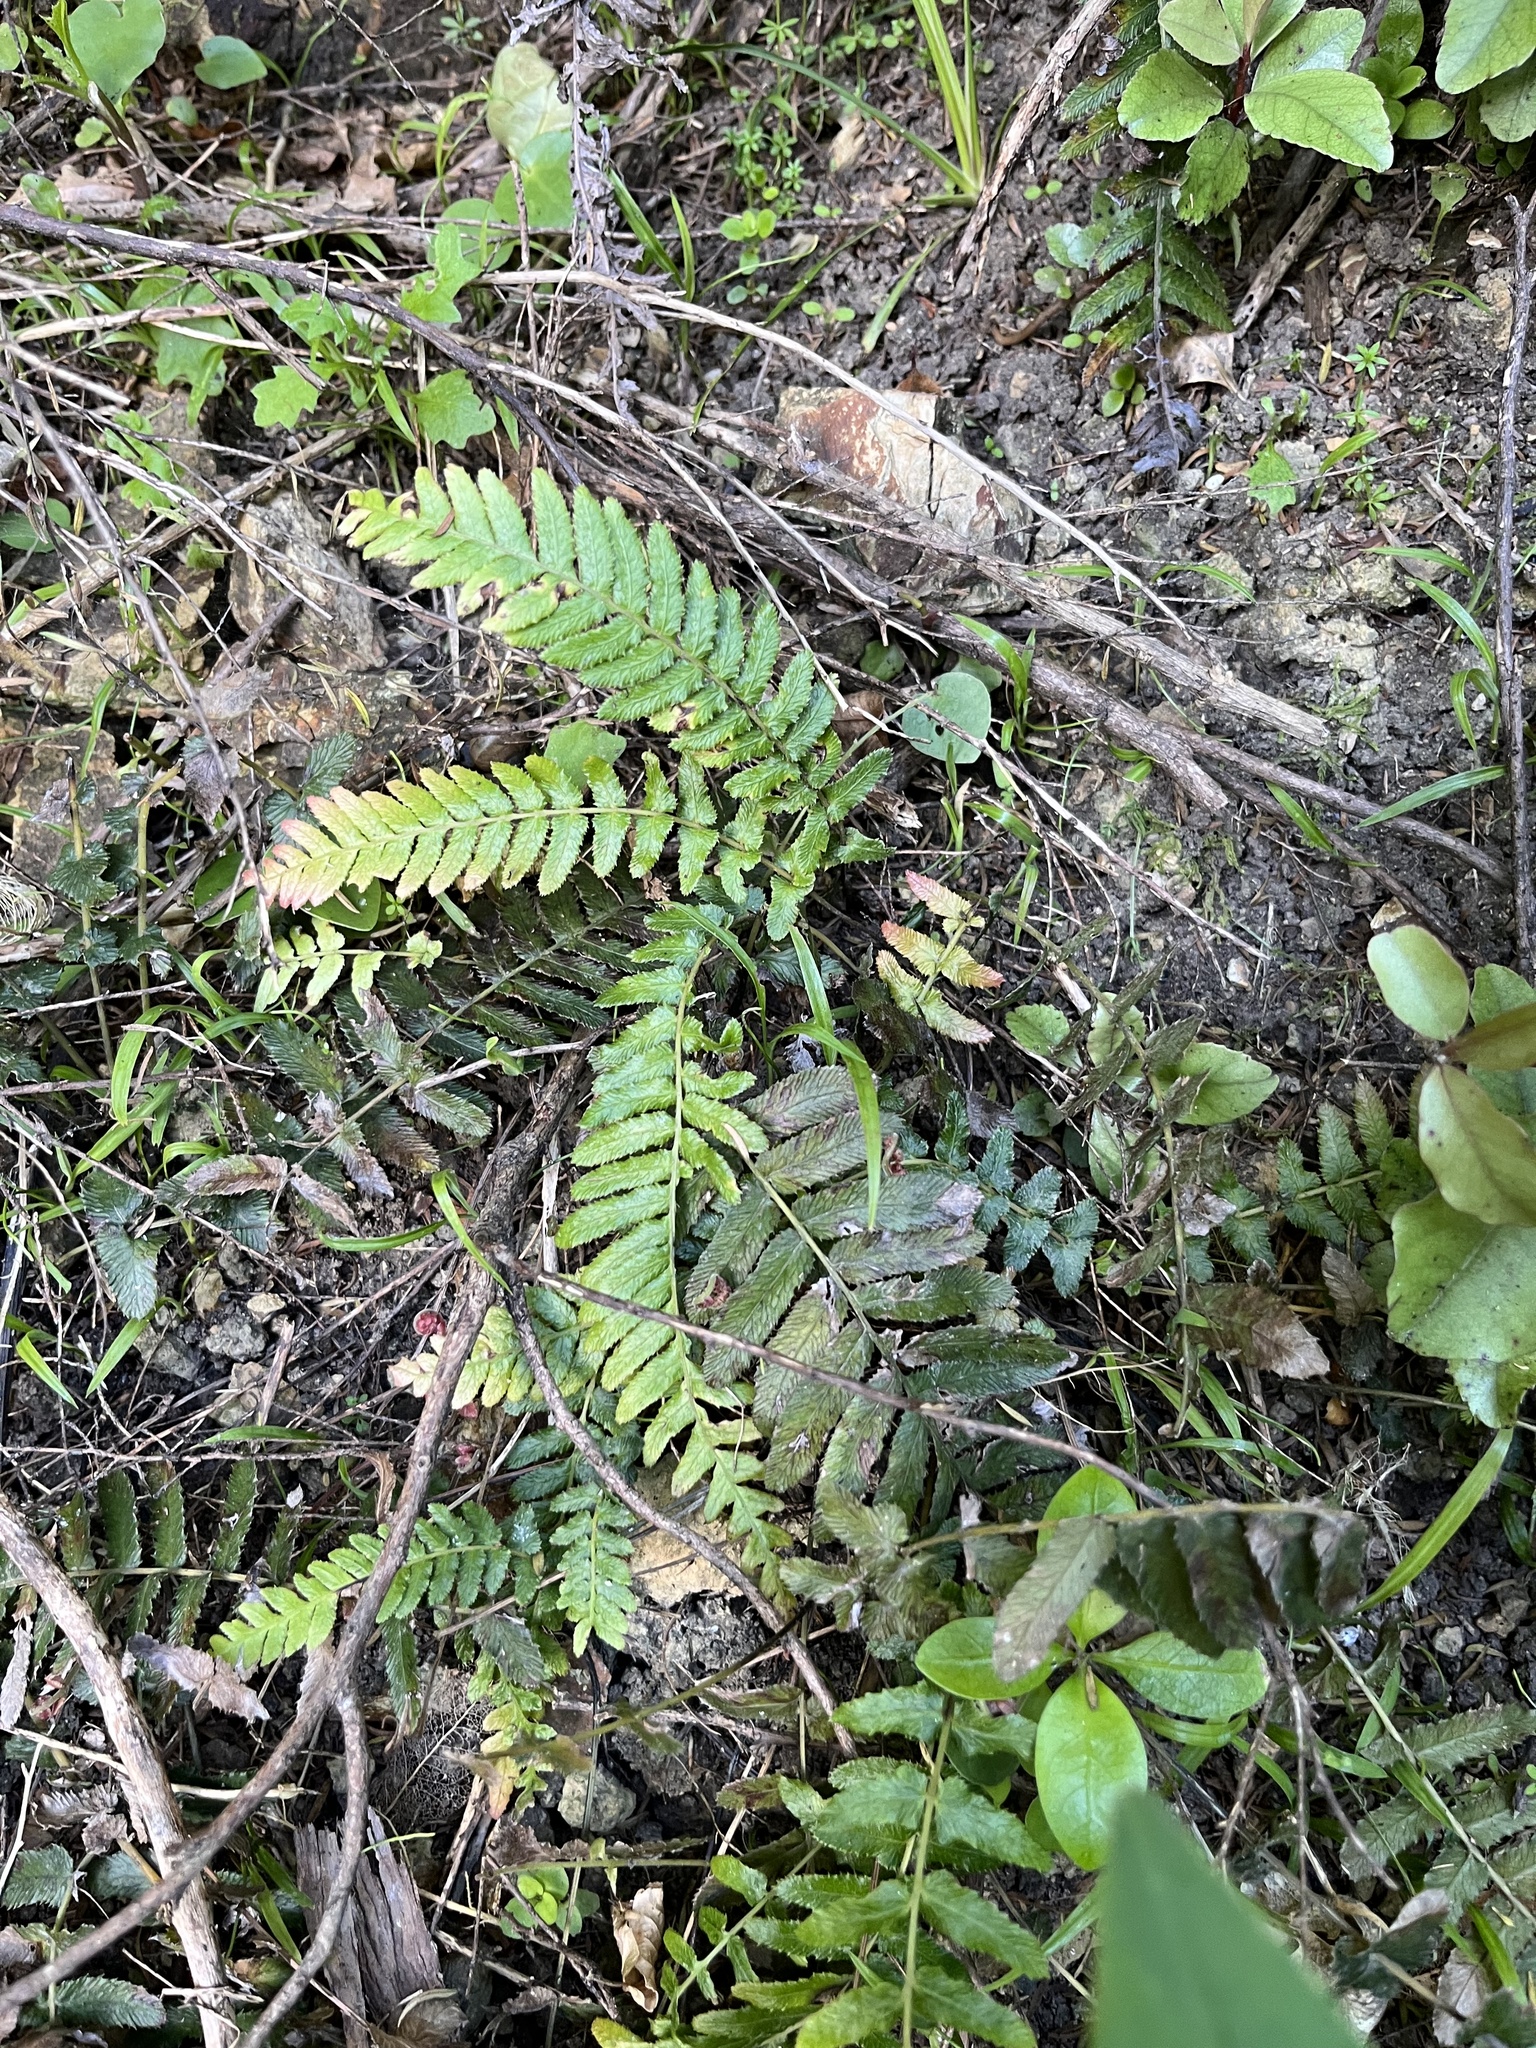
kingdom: Plantae
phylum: Tracheophyta
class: Polypodiopsida
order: Polypodiales
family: Blechnaceae
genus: Doodia
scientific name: Doodia australis
